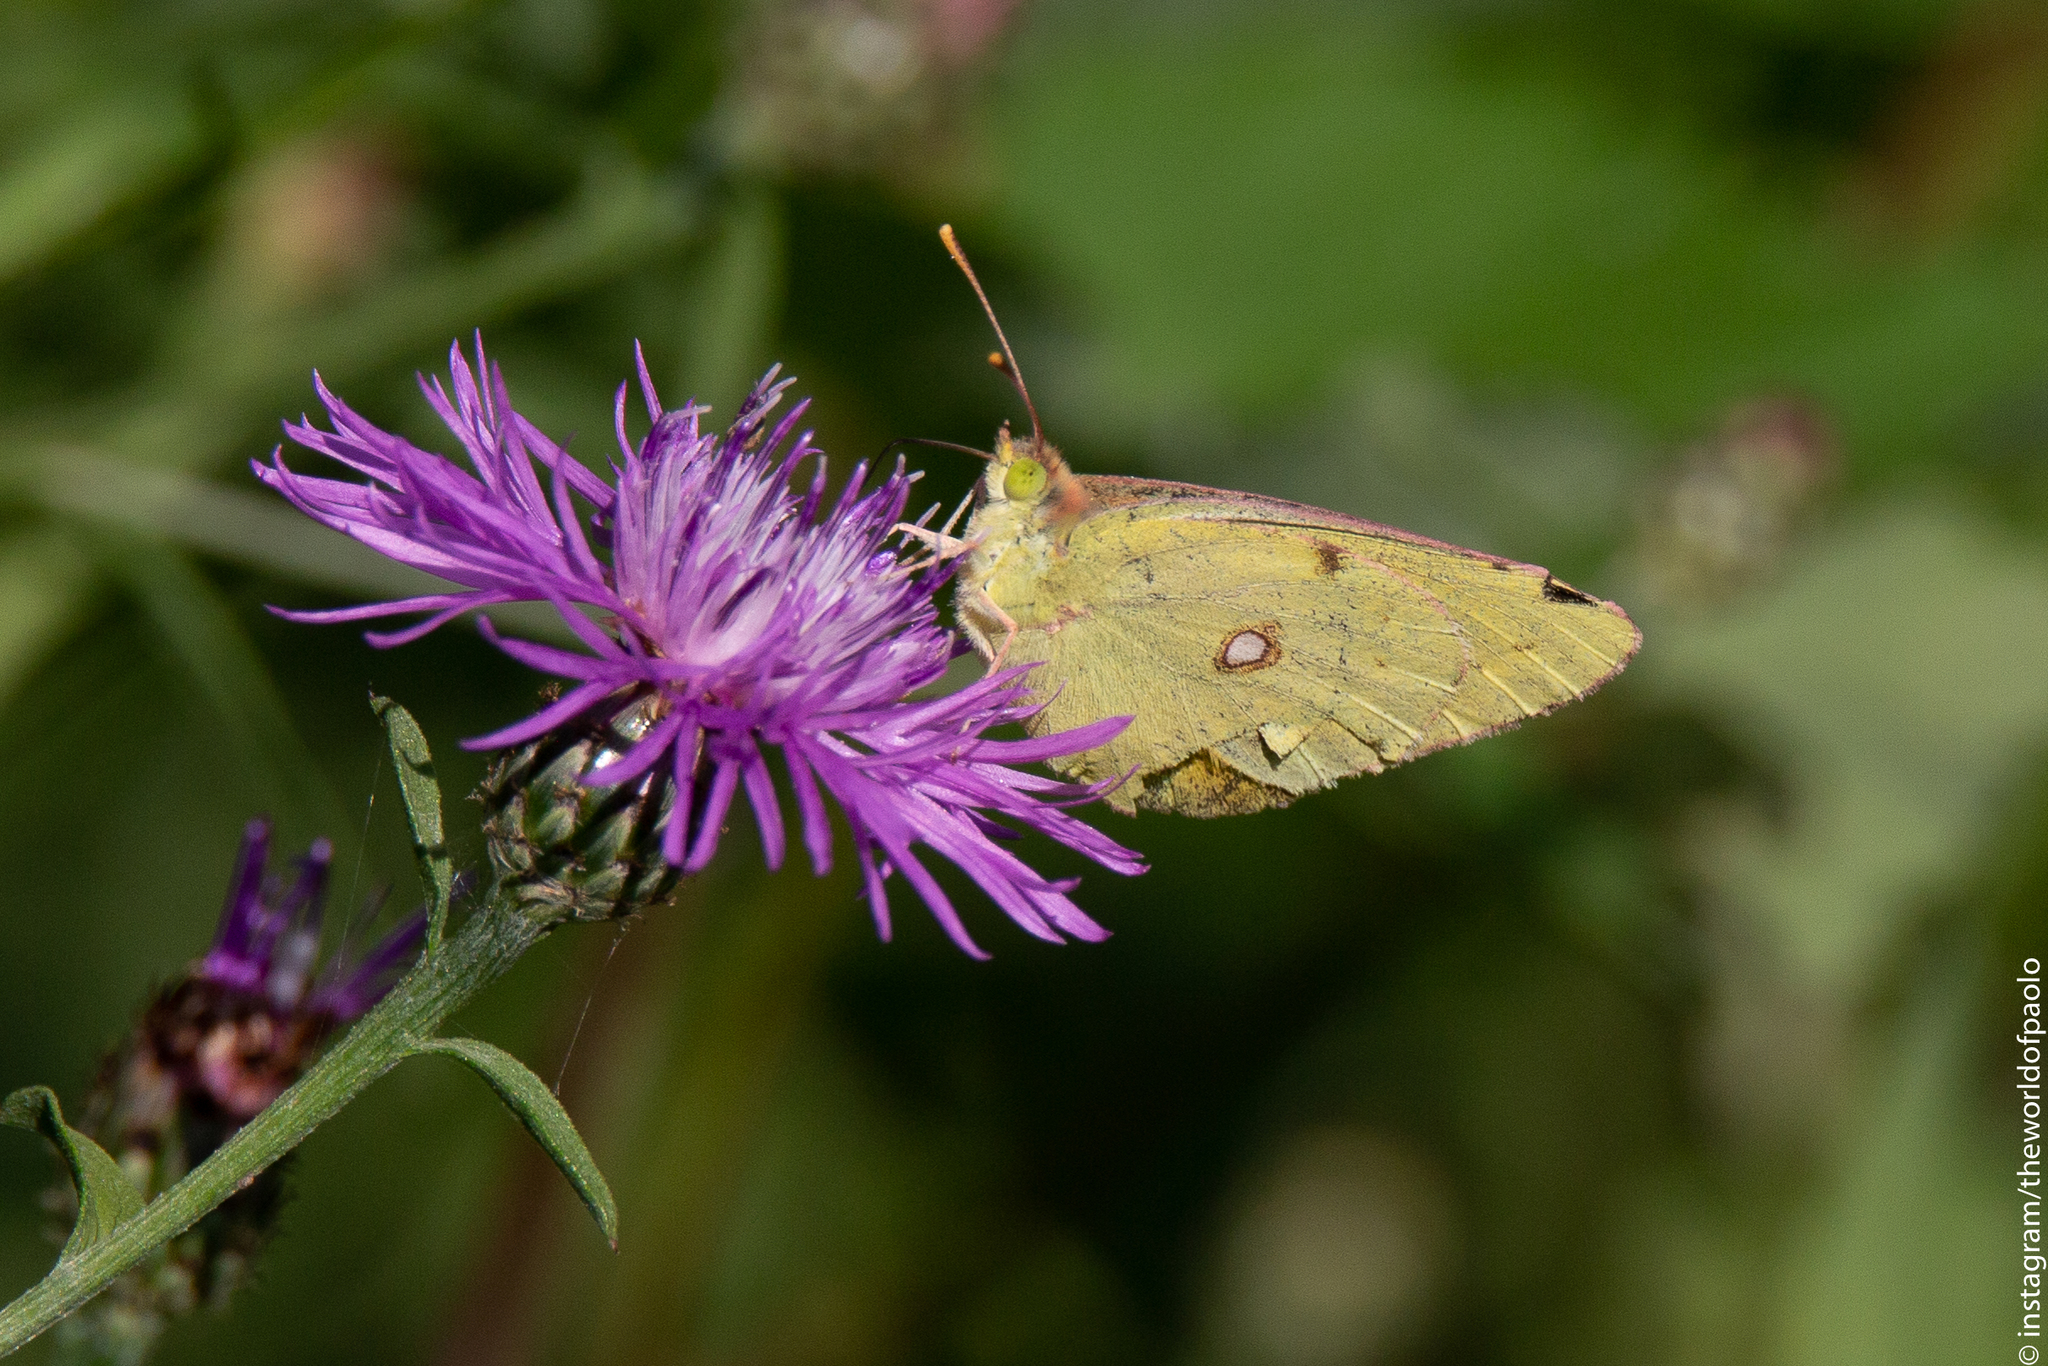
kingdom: Animalia
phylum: Arthropoda
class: Insecta
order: Lepidoptera
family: Pieridae
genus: Colias
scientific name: Colias croceus
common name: Clouded yellow
